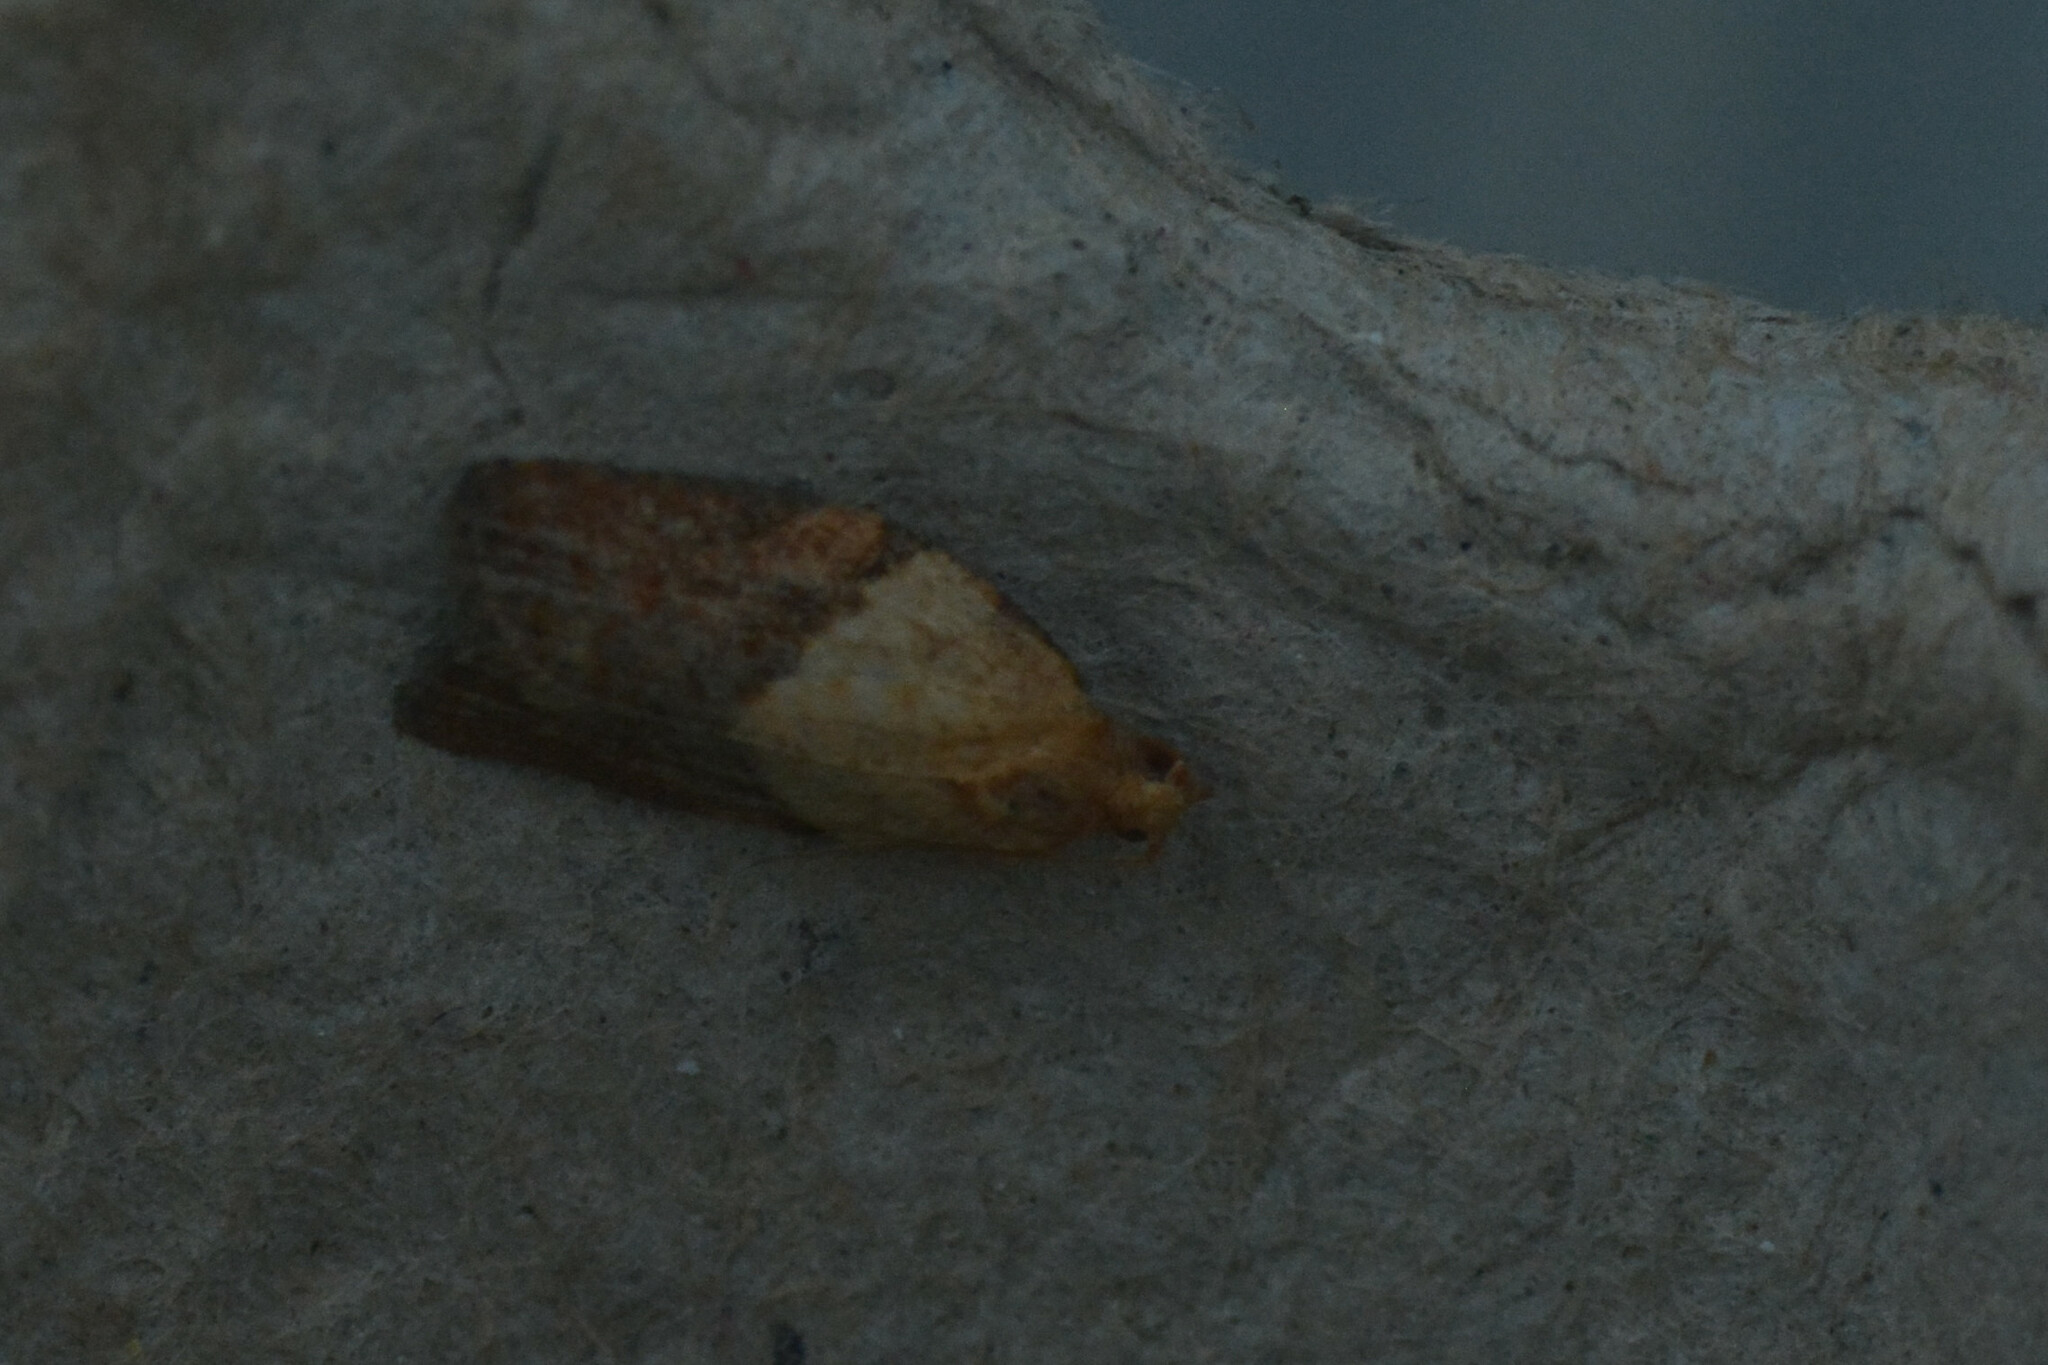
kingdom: Animalia
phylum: Arthropoda
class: Insecta
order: Lepidoptera
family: Tortricidae
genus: Epiphyas
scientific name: Epiphyas postvittana
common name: Light brown apple moth
